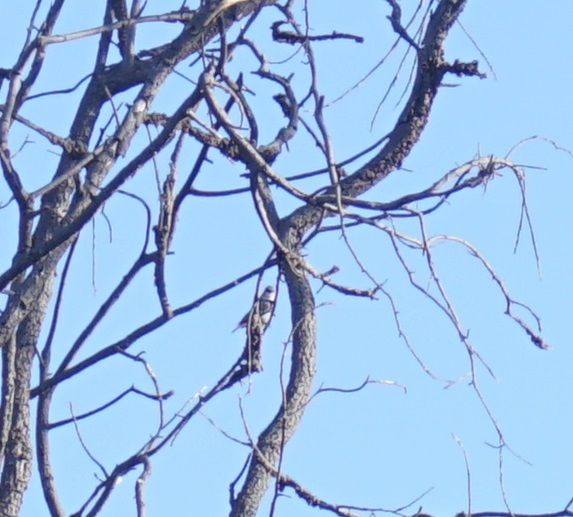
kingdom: Animalia
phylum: Chordata
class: Aves
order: Passeriformes
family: Estrildidae
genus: Stagonopleura
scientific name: Stagonopleura guttata
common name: Diamond firetail
